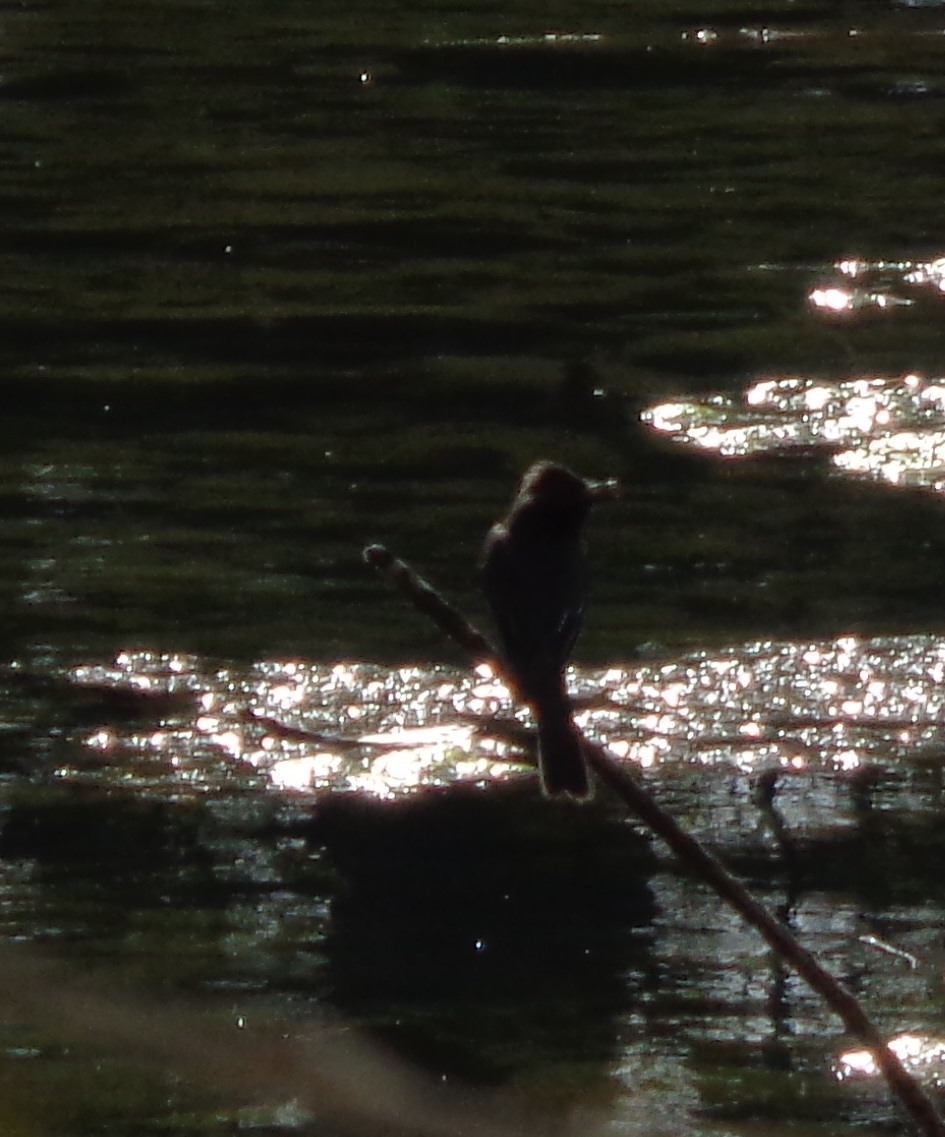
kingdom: Animalia
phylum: Chordata
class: Aves
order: Passeriformes
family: Tyrannidae
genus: Sayornis
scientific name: Sayornis nigricans
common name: Black phoebe
